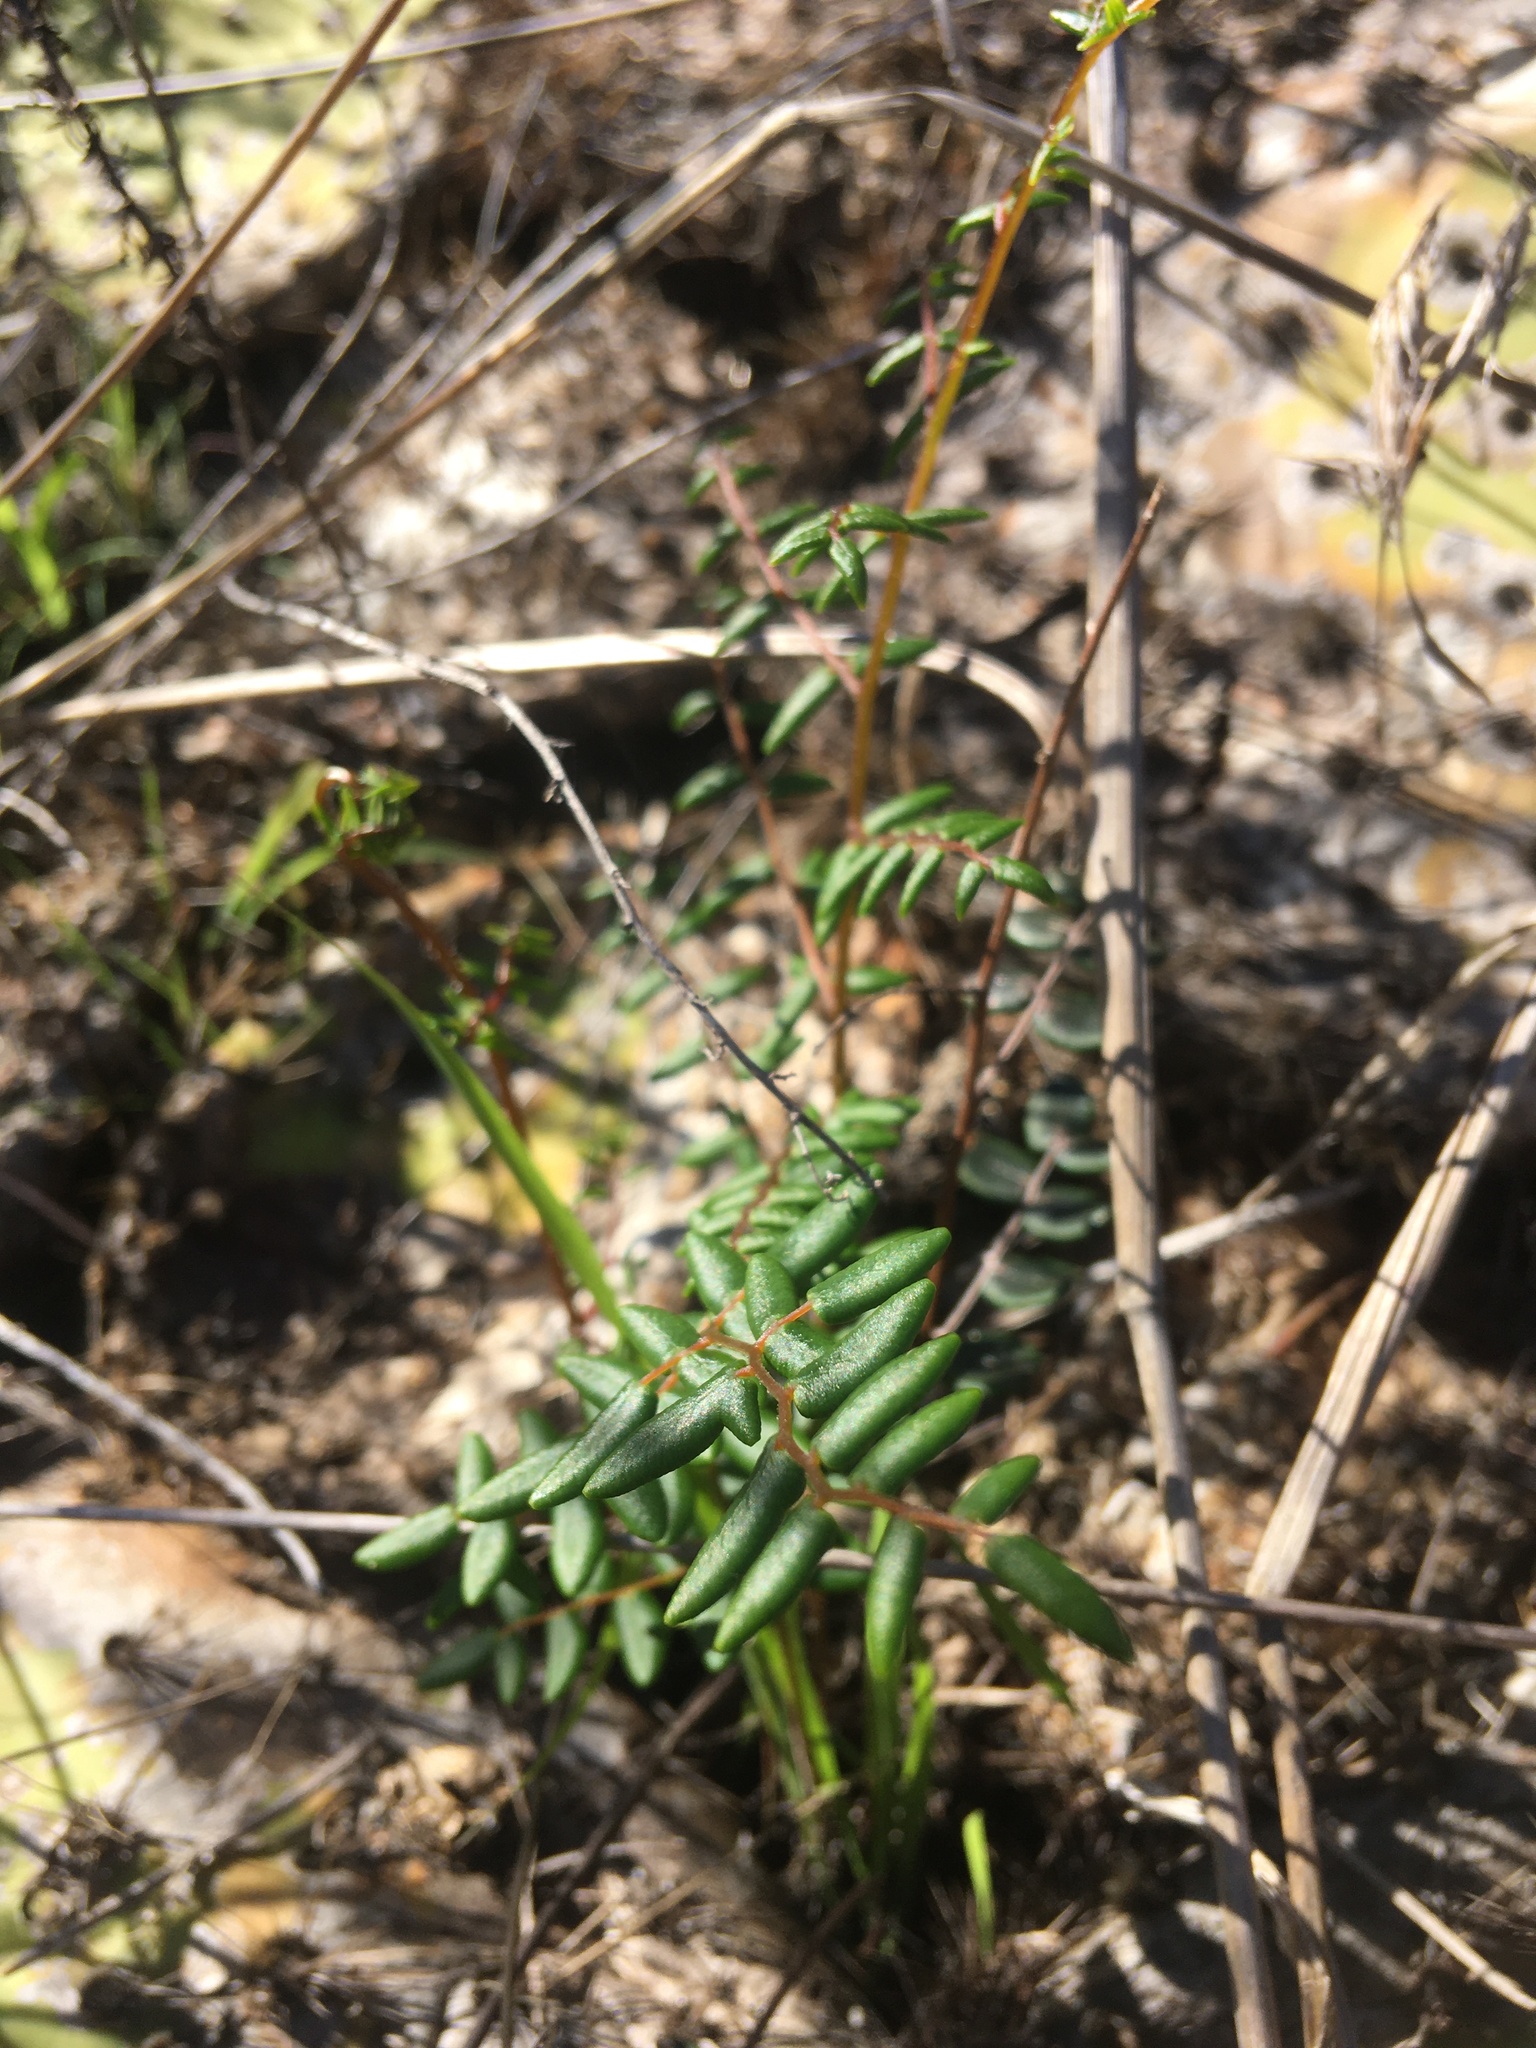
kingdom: Plantae
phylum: Tracheophyta
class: Polypodiopsida
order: Polypodiales
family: Pteridaceae
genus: Pellaea
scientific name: Pellaea andromedifolia
